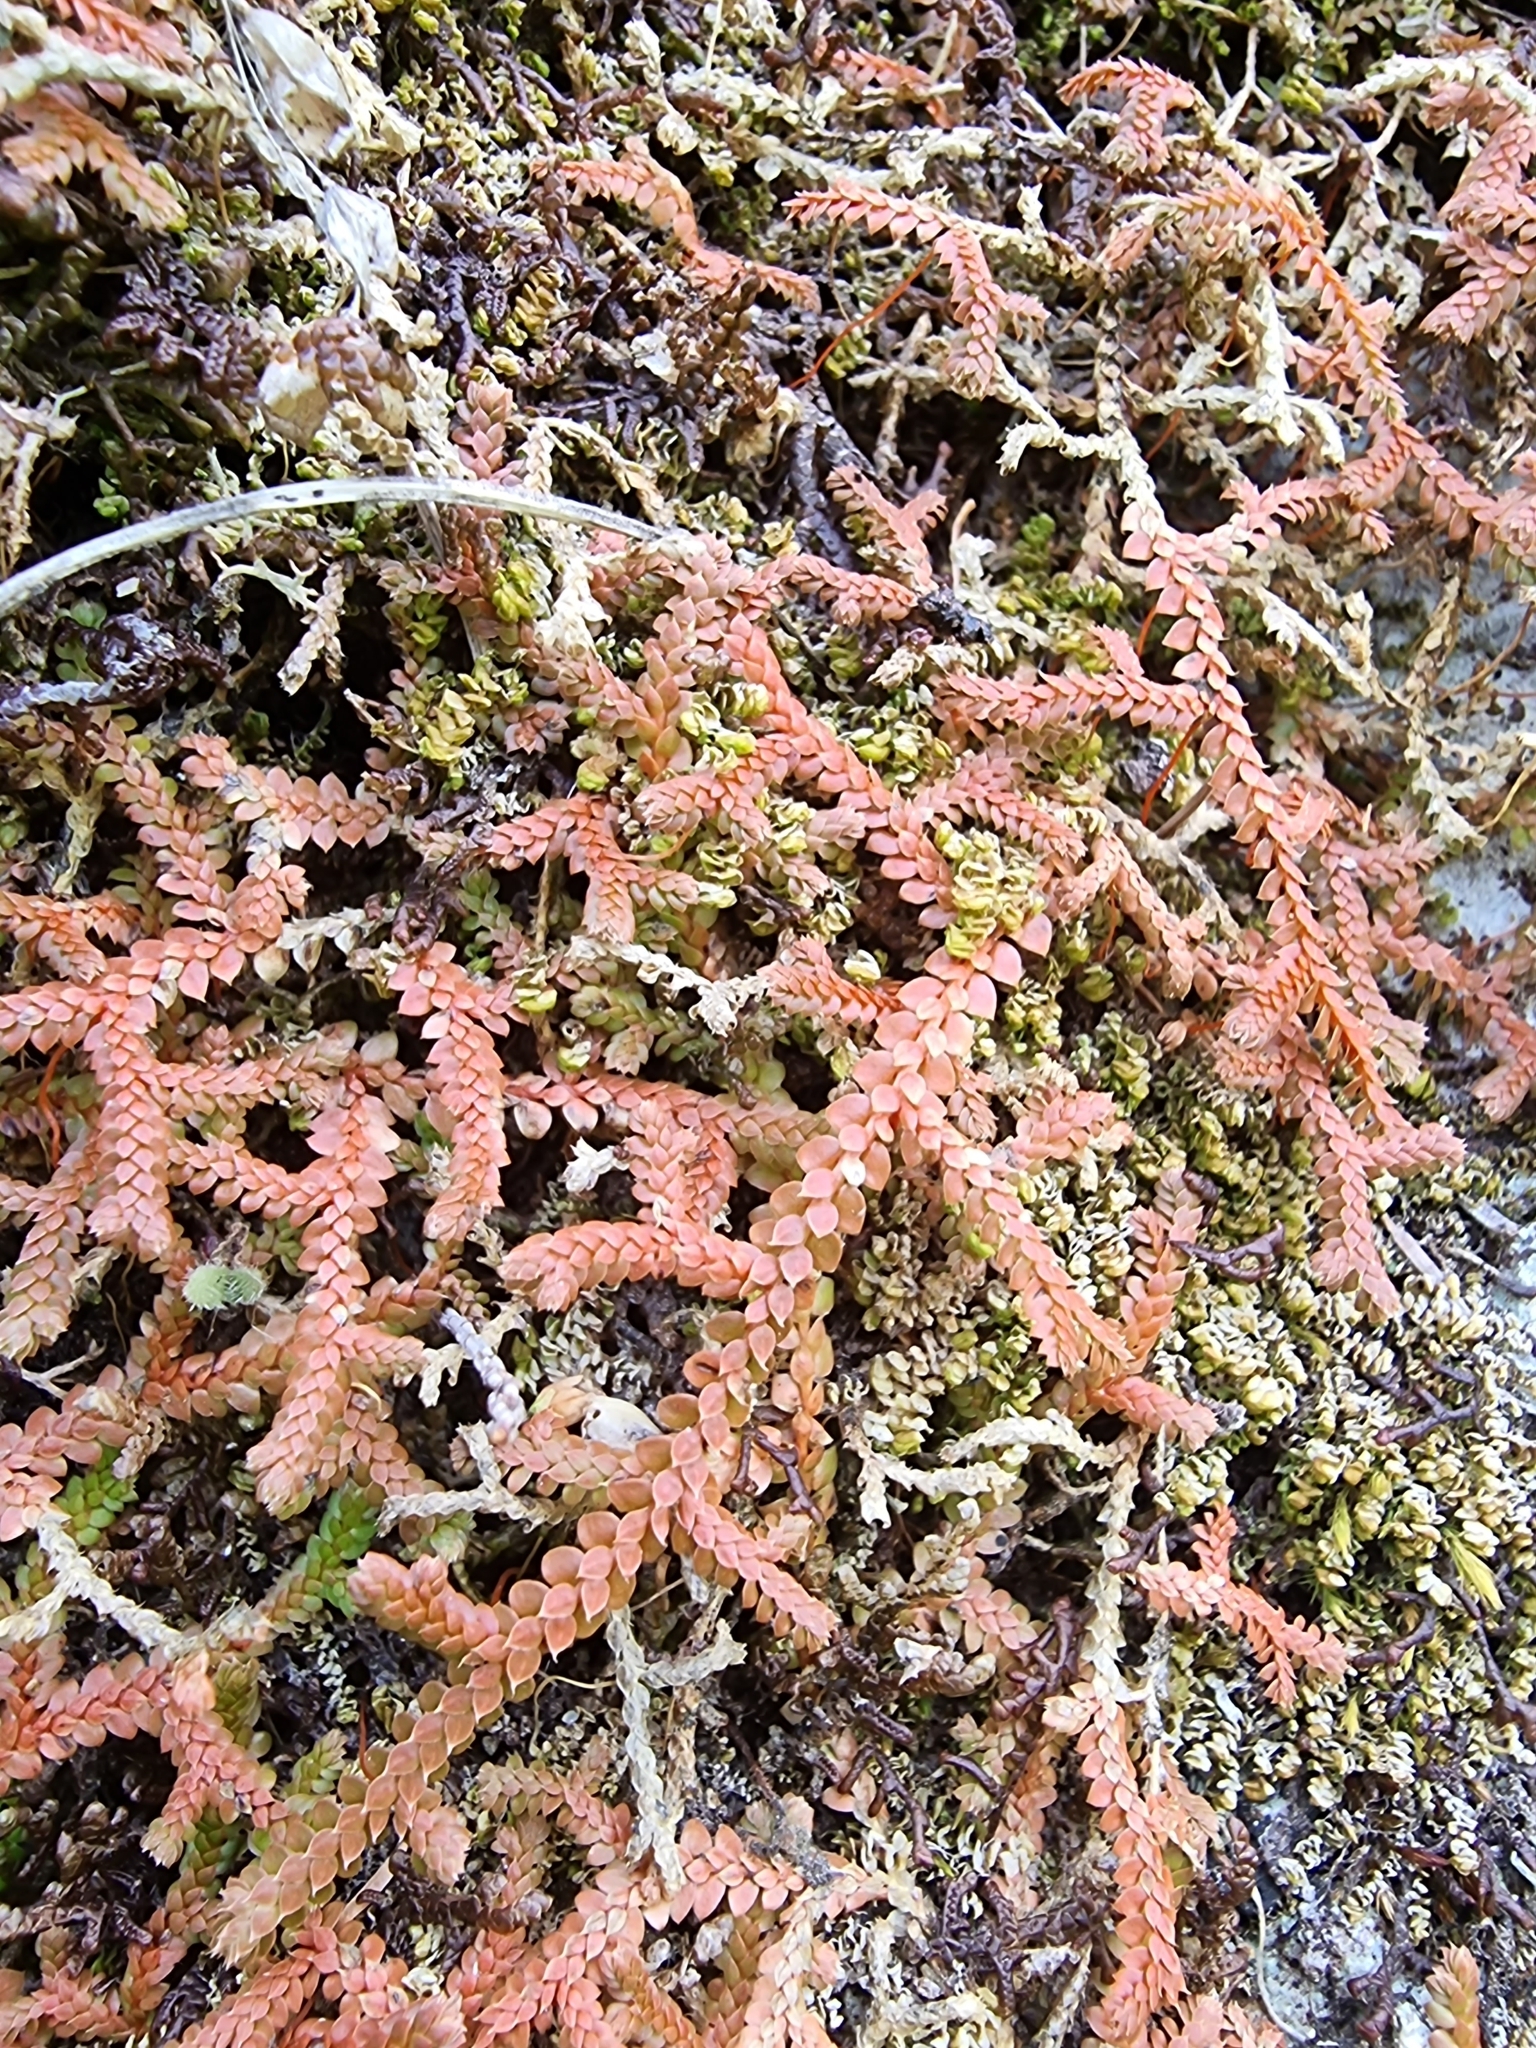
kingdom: Plantae
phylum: Tracheophyta
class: Lycopodiopsida
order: Selaginellales
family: Selaginellaceae
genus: Selaginella
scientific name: Selaginella denticulata
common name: Toothed-leaved clubmoss
